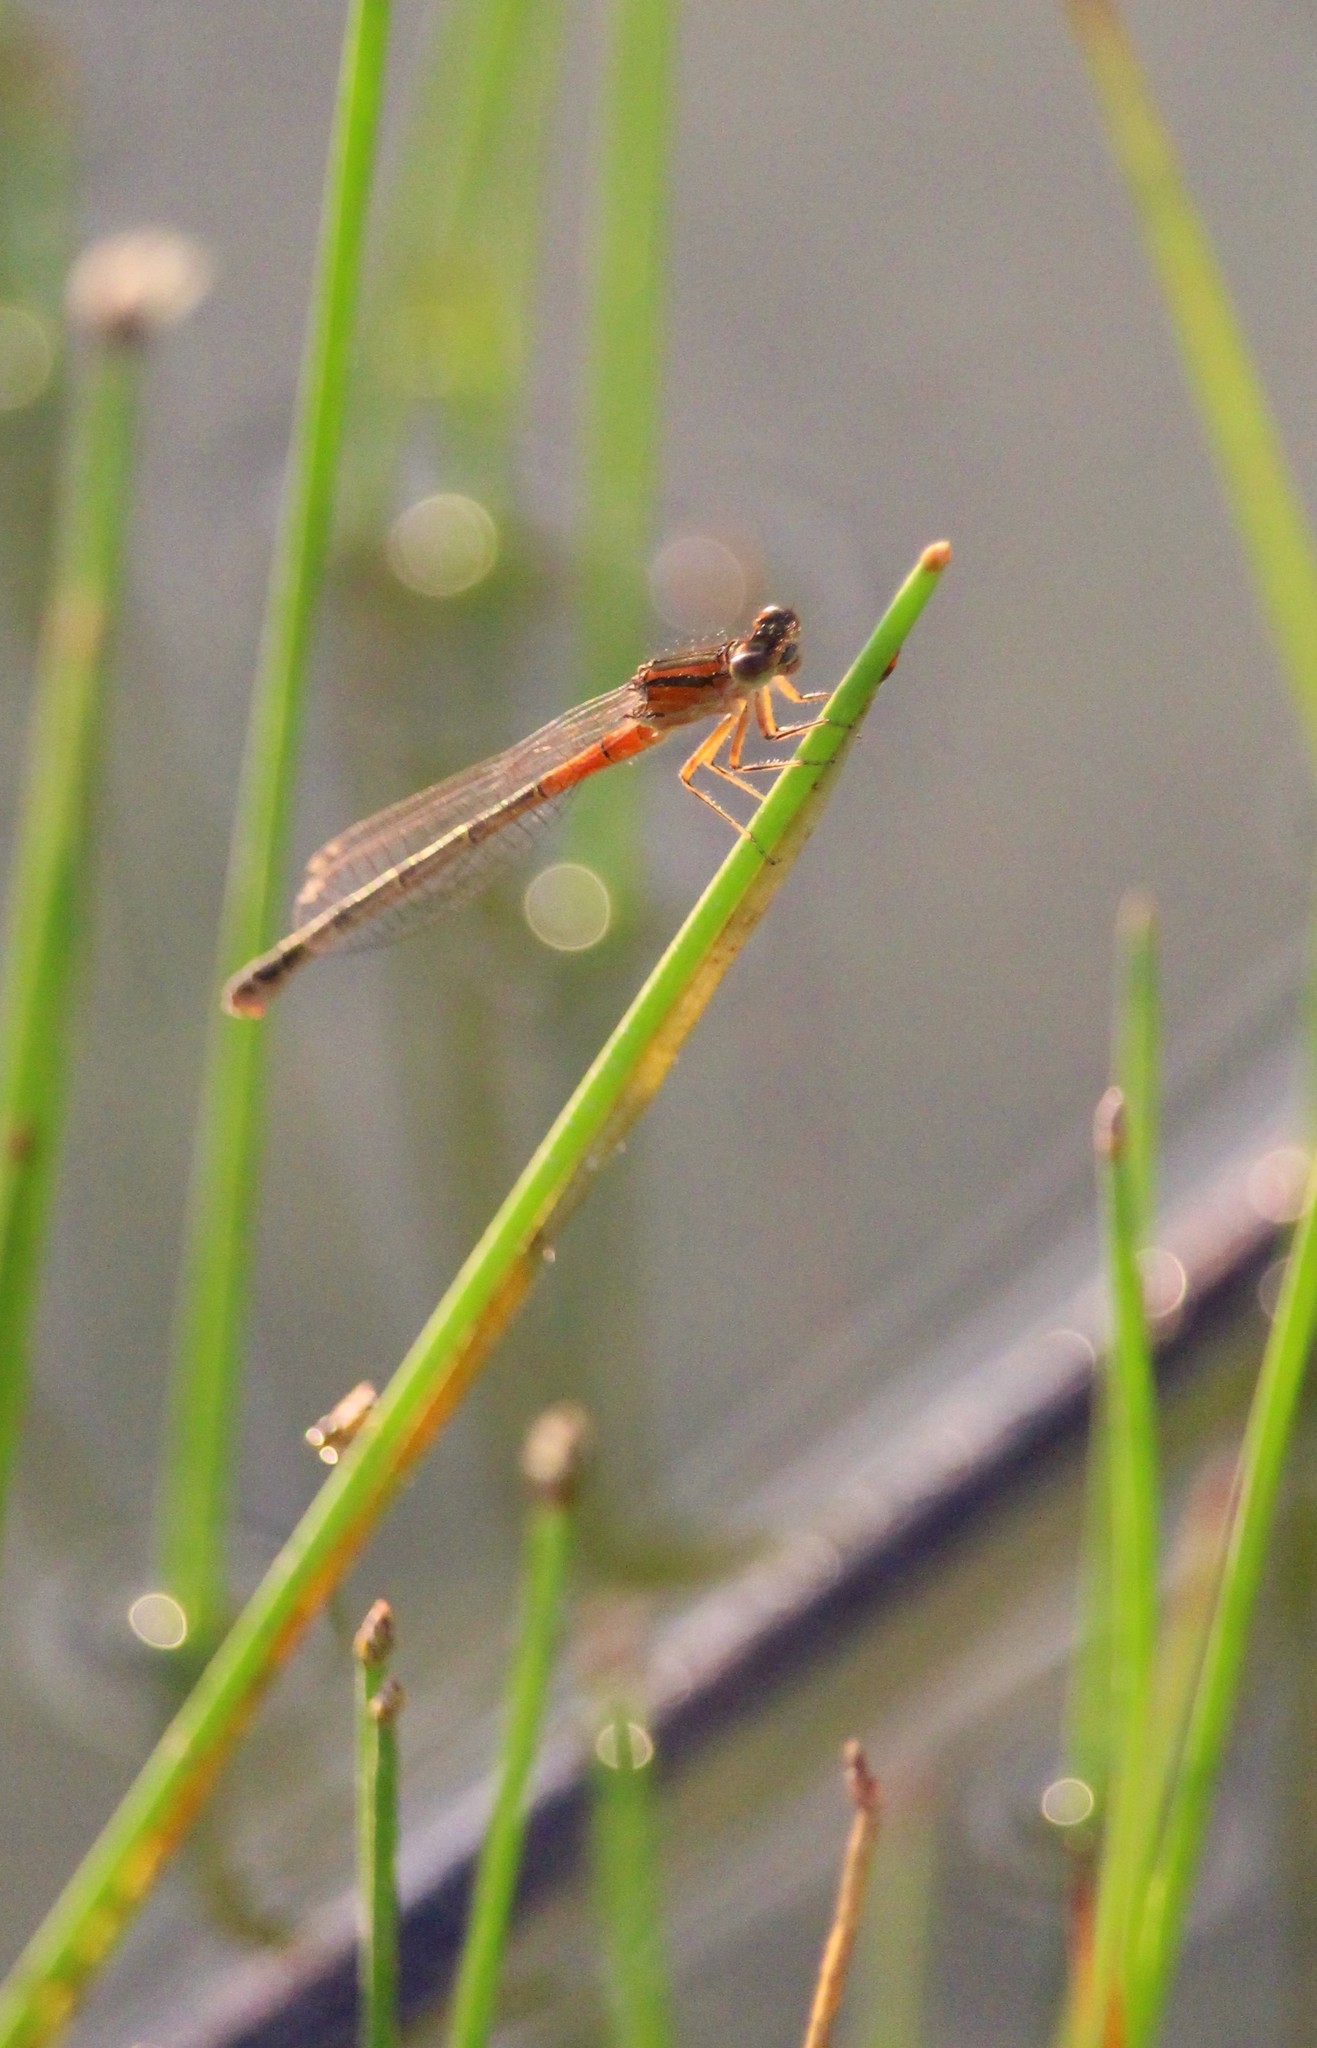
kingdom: Animalia
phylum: Arthropoda
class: Insecta
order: Odonata
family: Coenagrionidae
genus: Enallagma
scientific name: Enallagma signatum
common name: Orange bluet
